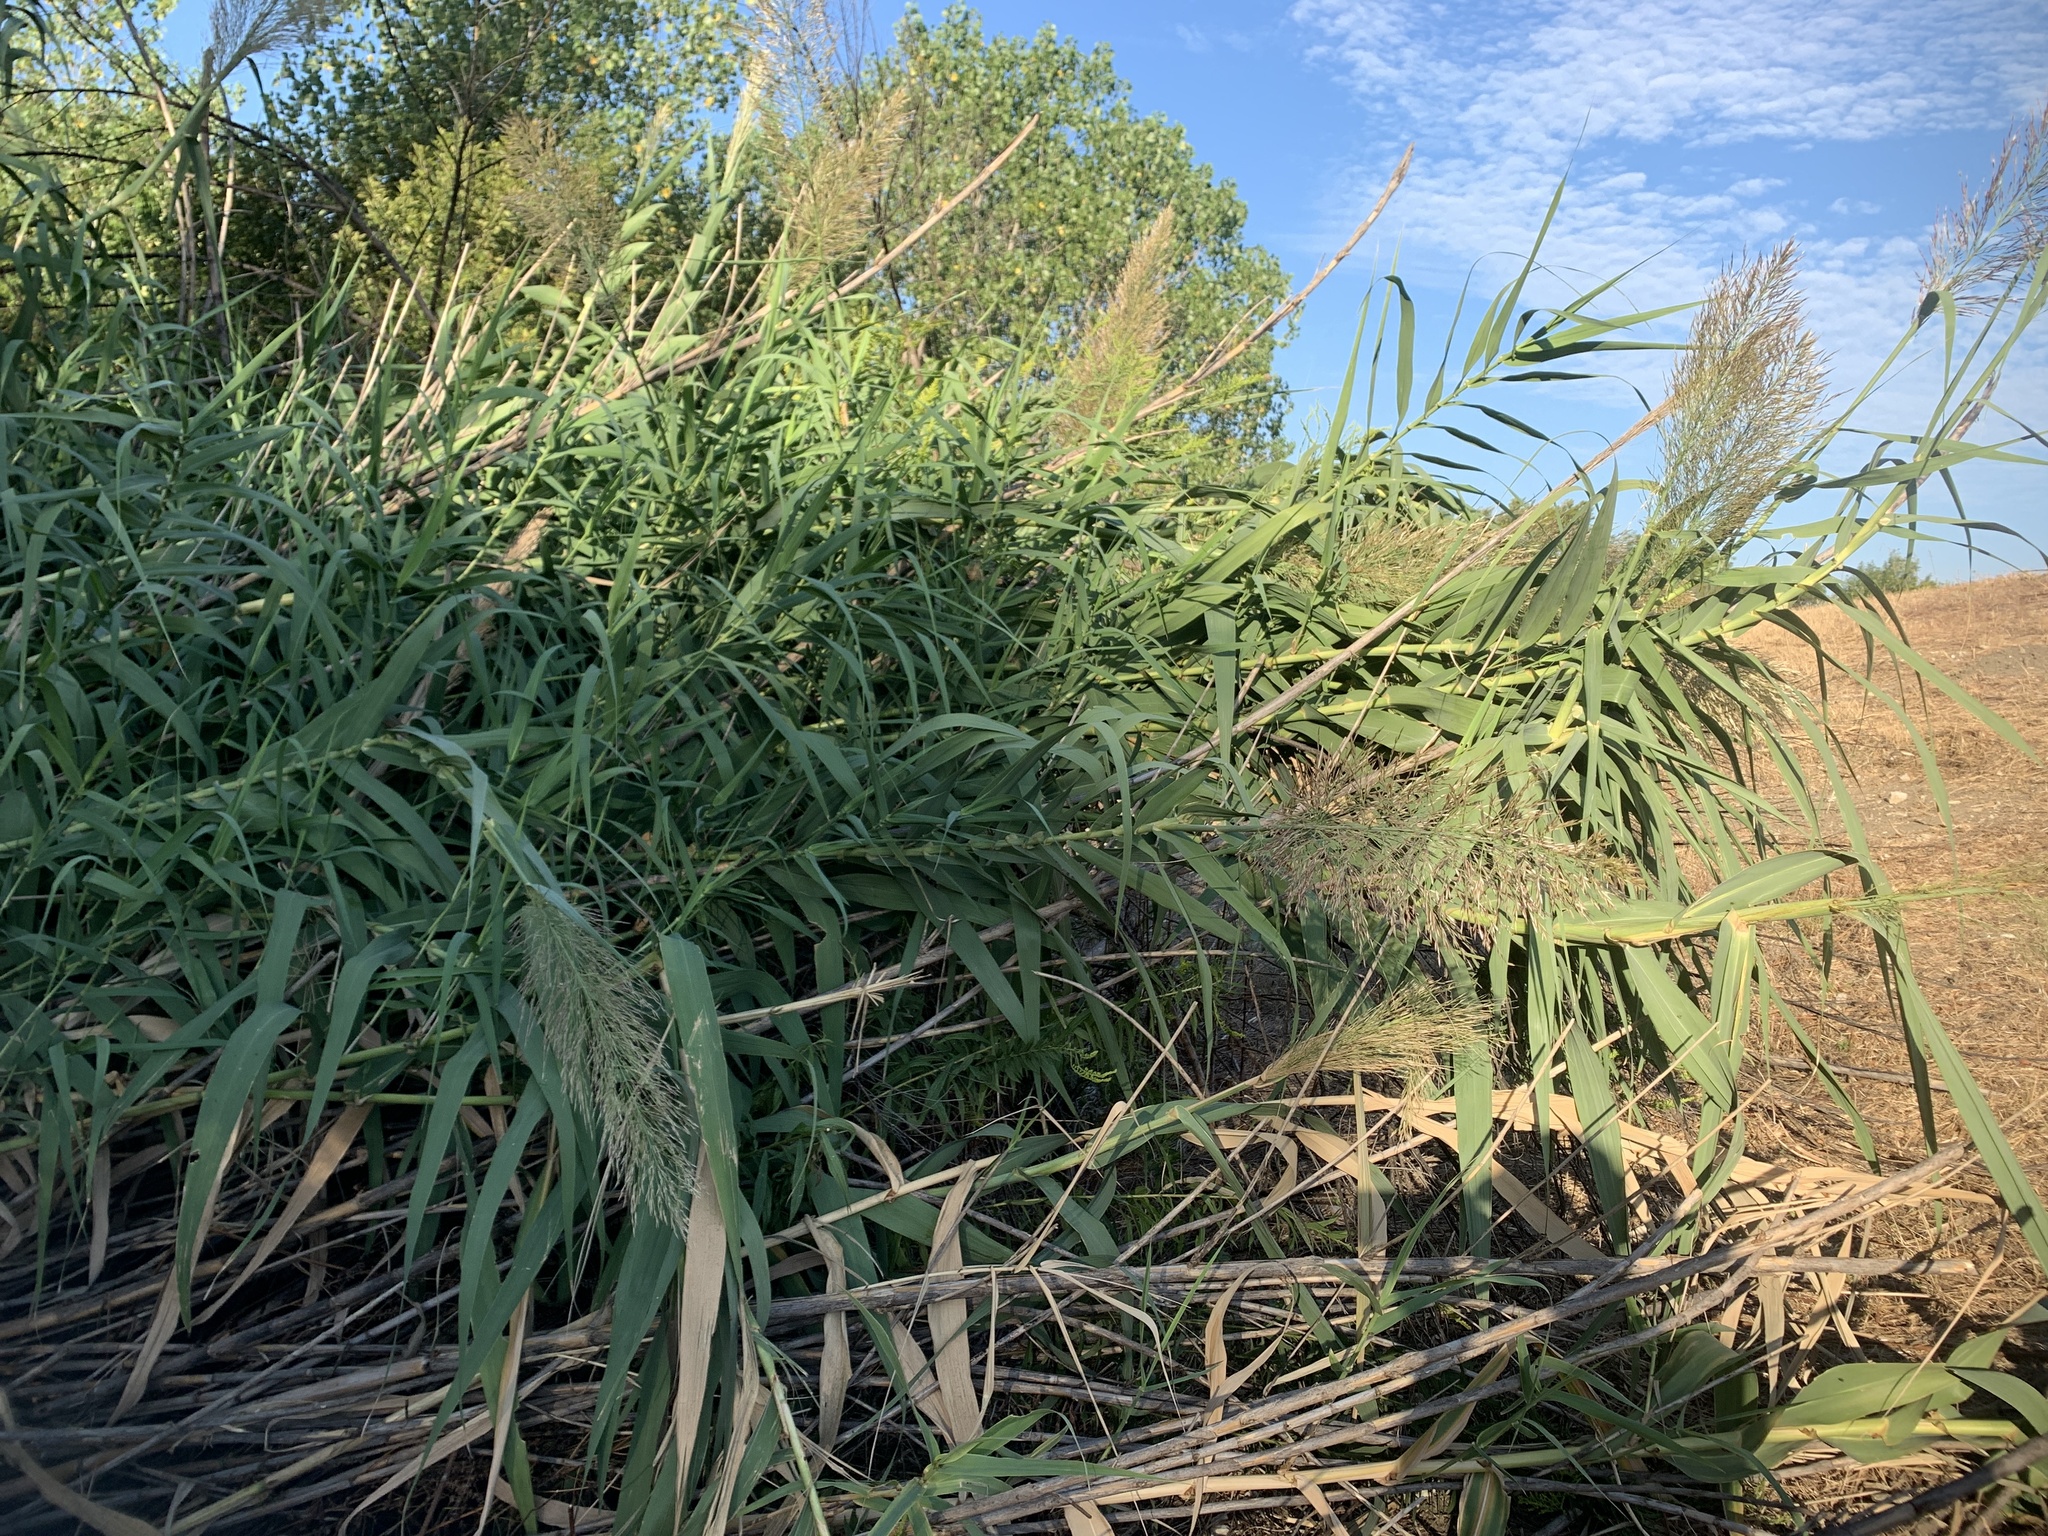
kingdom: Plantae
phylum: Tracheophyta
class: Liliopsida
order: Poales
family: Poaceae
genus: Arundo
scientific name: Arundo donax
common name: Giant reed
